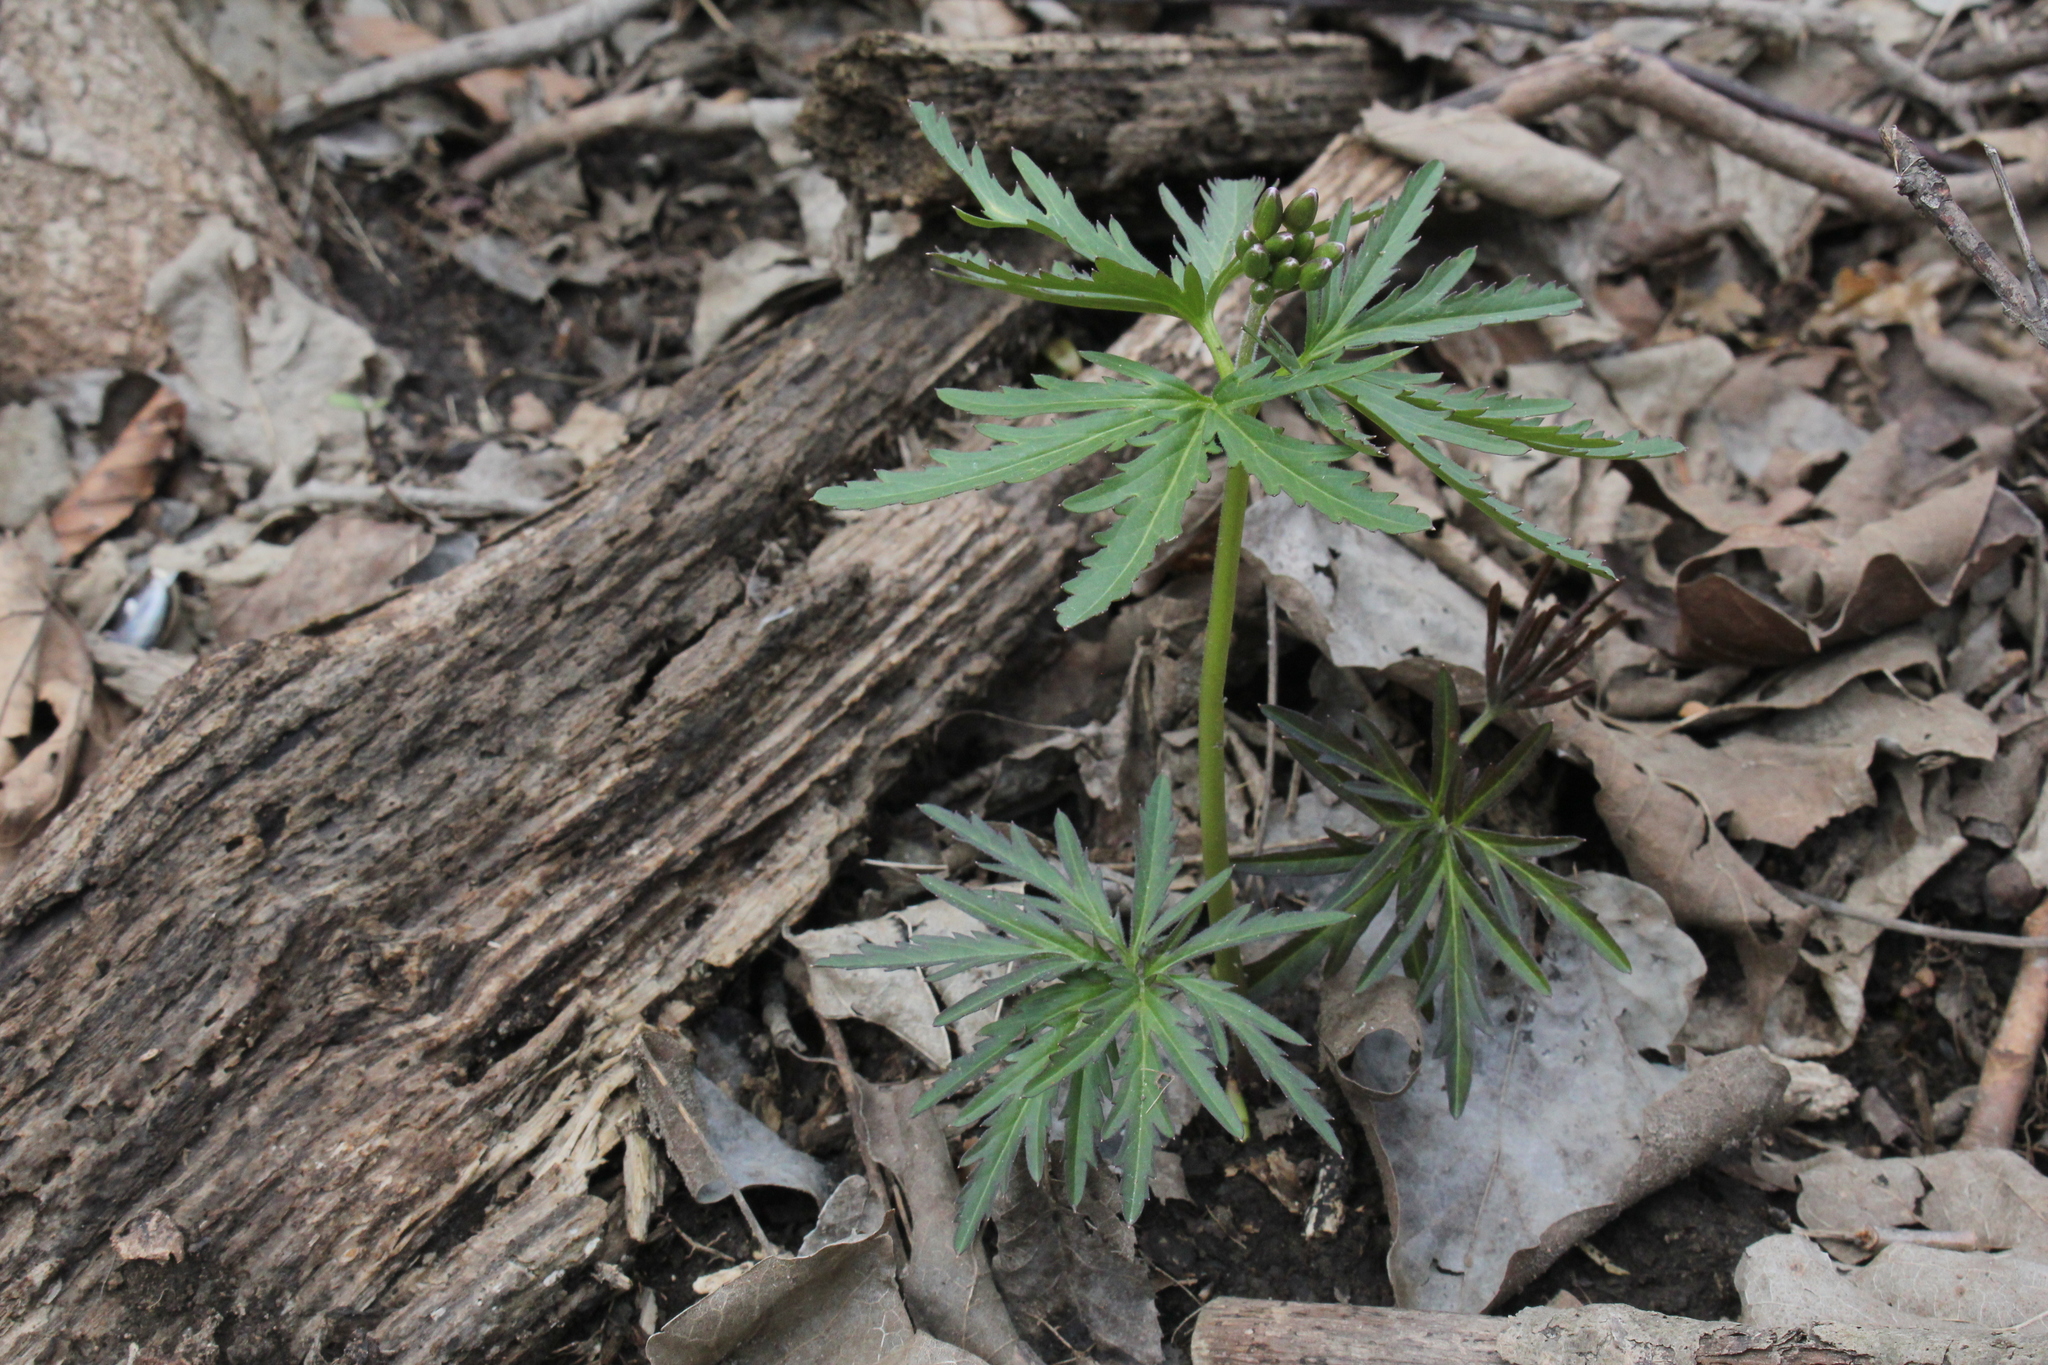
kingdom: Plantae
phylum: Tracheophyta
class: Magnoliopsida
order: Brassicales
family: Brassicaceae
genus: Cardamine
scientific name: Cardamine concatenata
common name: Cut-leaf toothcup
